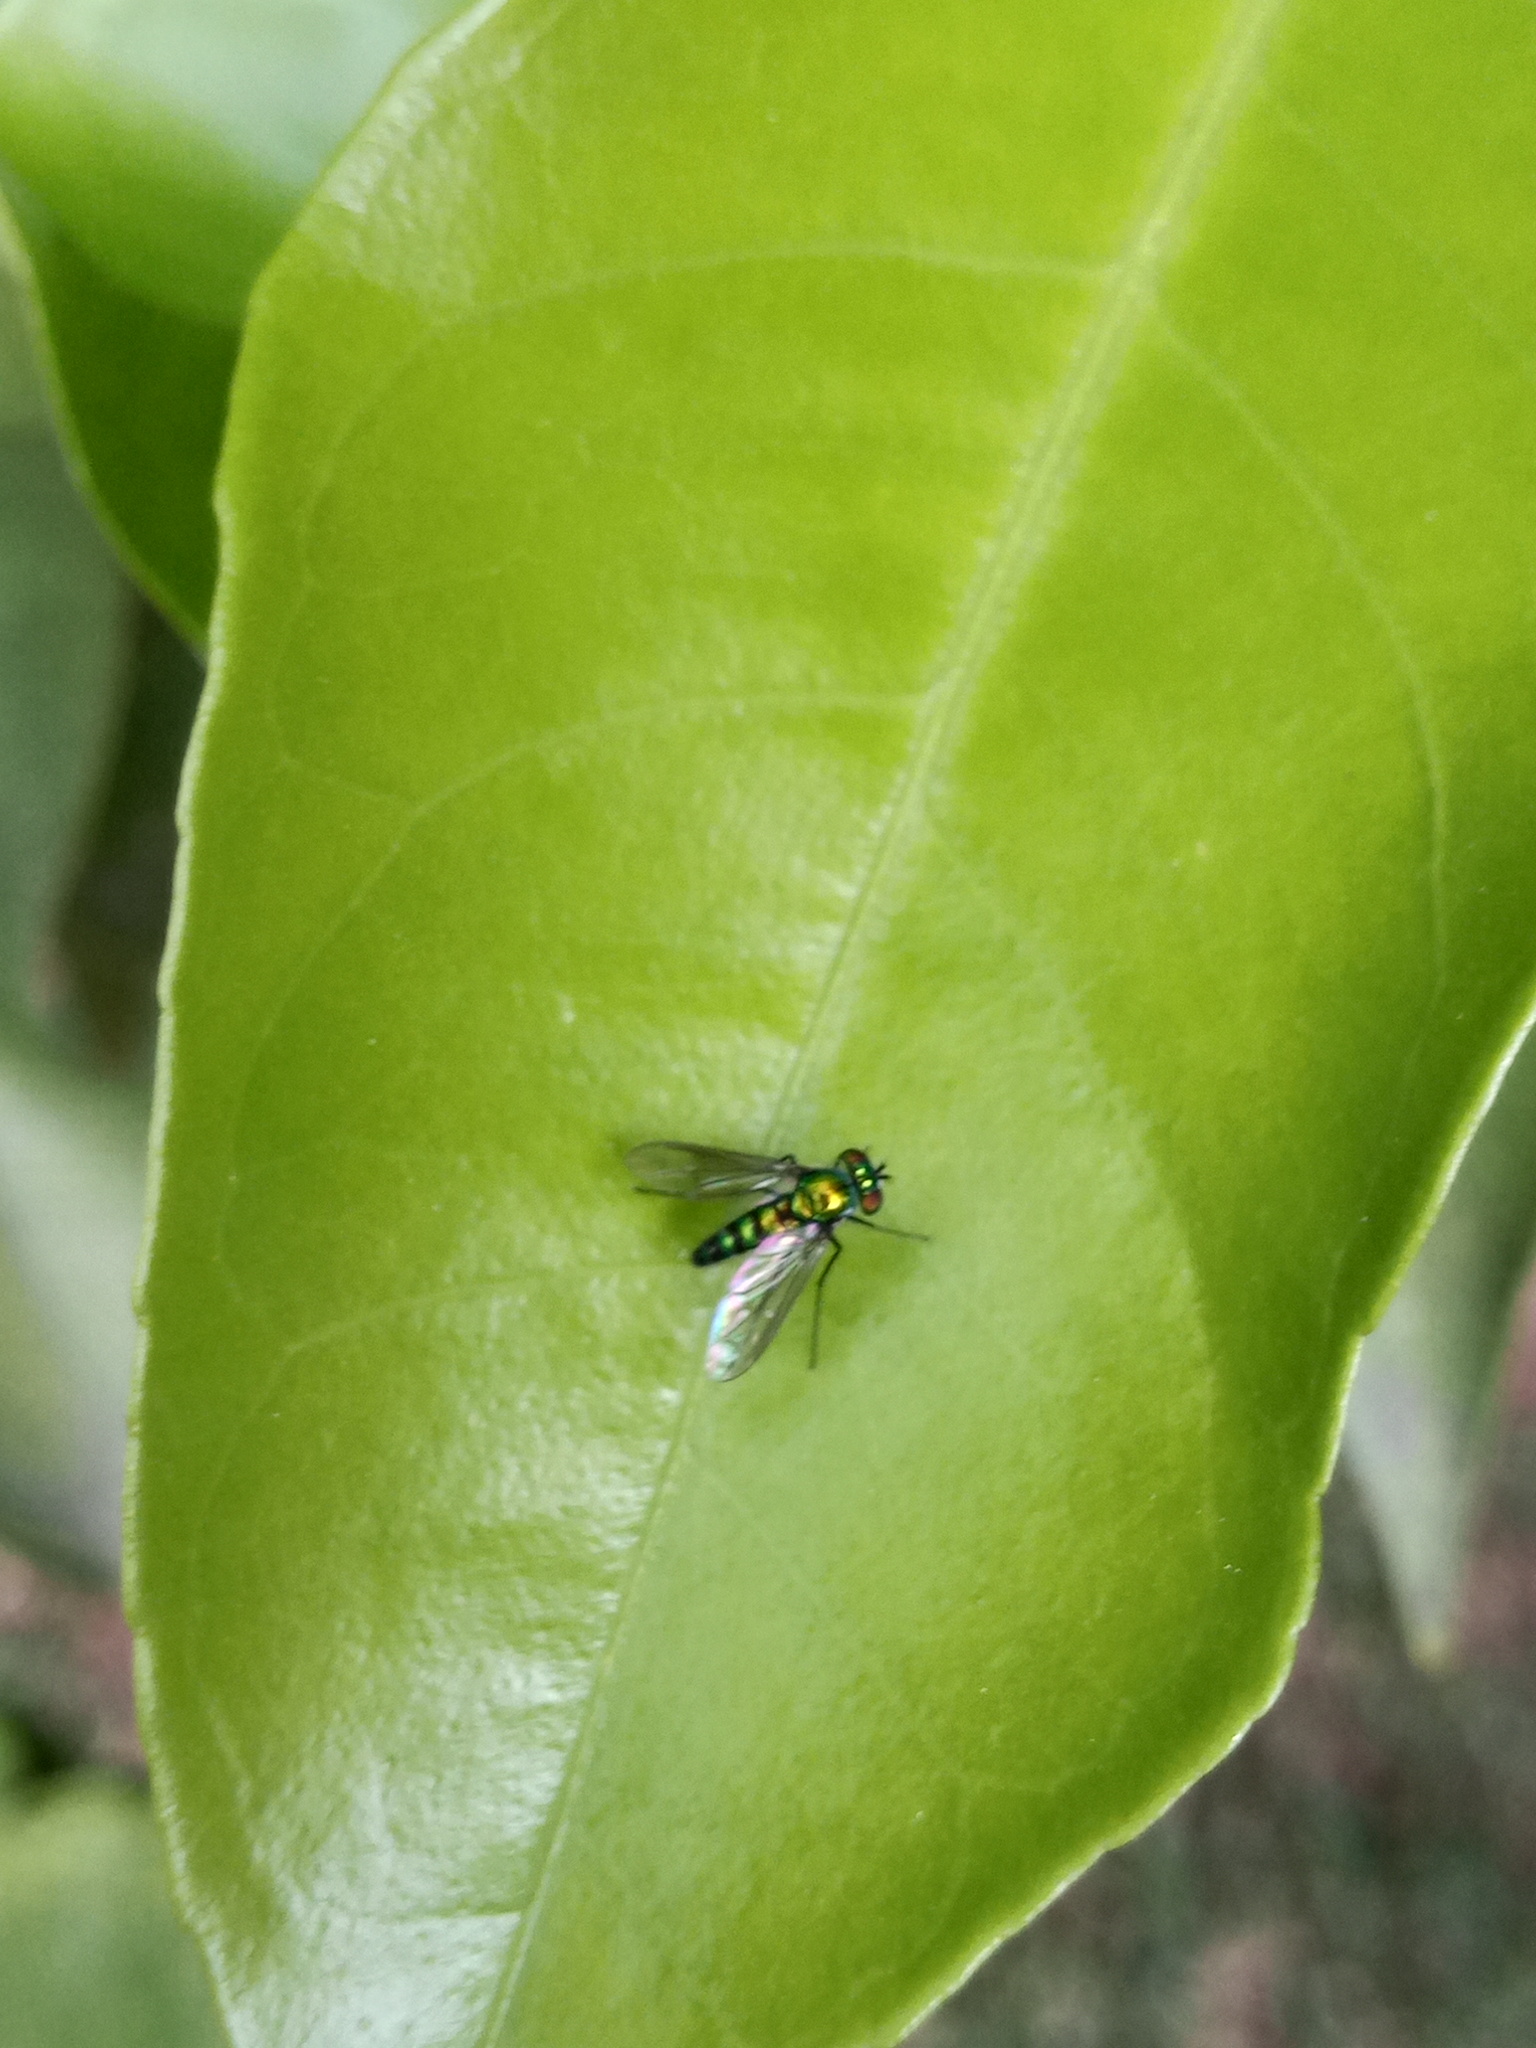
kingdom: Animalia
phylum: Arthropoda
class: Insecta
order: Diptera
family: Dolichopodidae
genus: Condylostylus
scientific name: Condylostylus longicornis
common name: Long-legged fly
